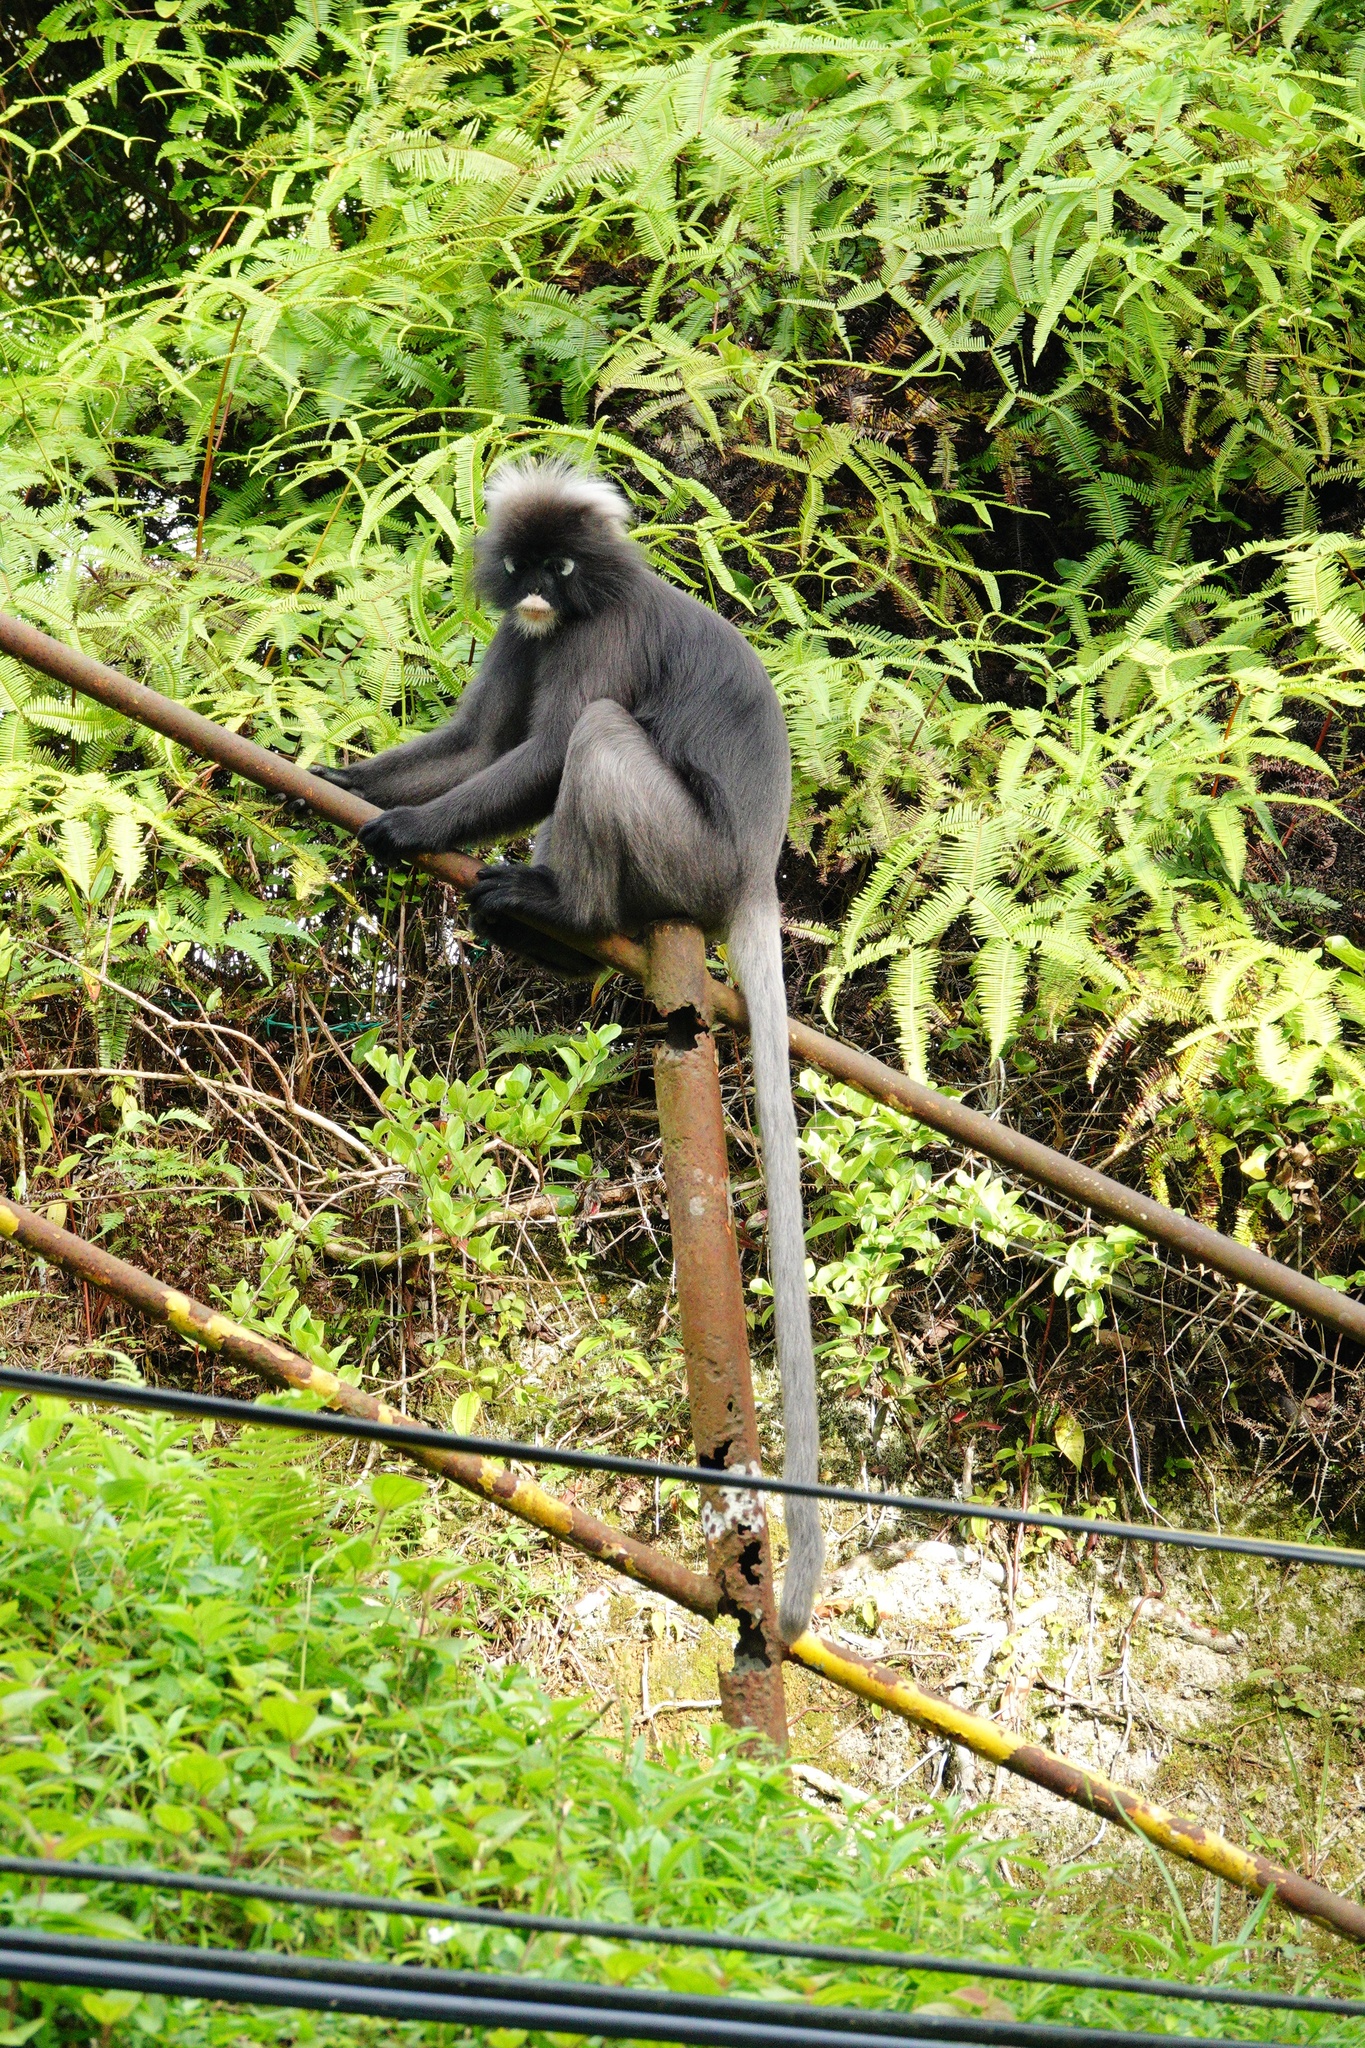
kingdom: Animalia
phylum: Chordata
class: Mammalia
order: Primates
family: Cercopithecidae
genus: Trachypithecus
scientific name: Trachypithecus obscurus
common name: Dusky leaf-monkey
